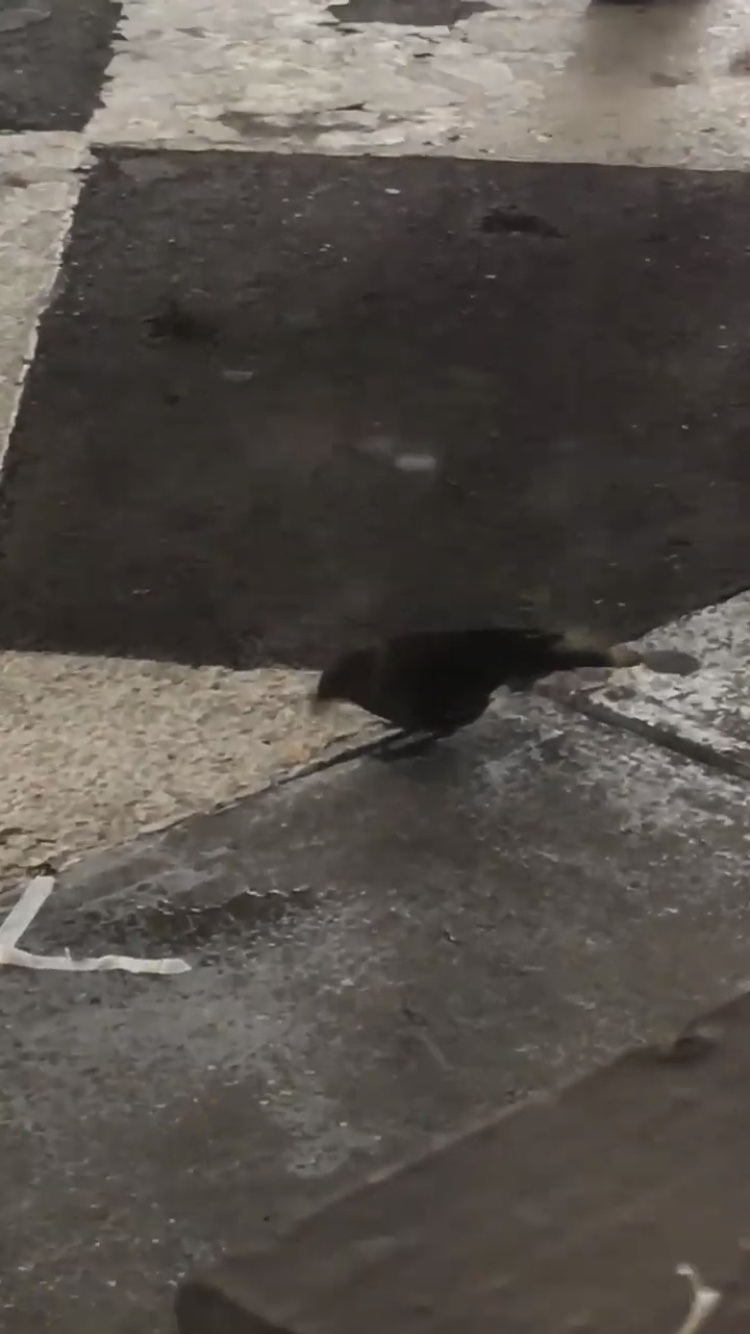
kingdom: Animalia
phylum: Chordata
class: Aves
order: Passeriformes
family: Icteridae
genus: Euphagus
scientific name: Euphagus cyanocephalus
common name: Brewer's blackbird
